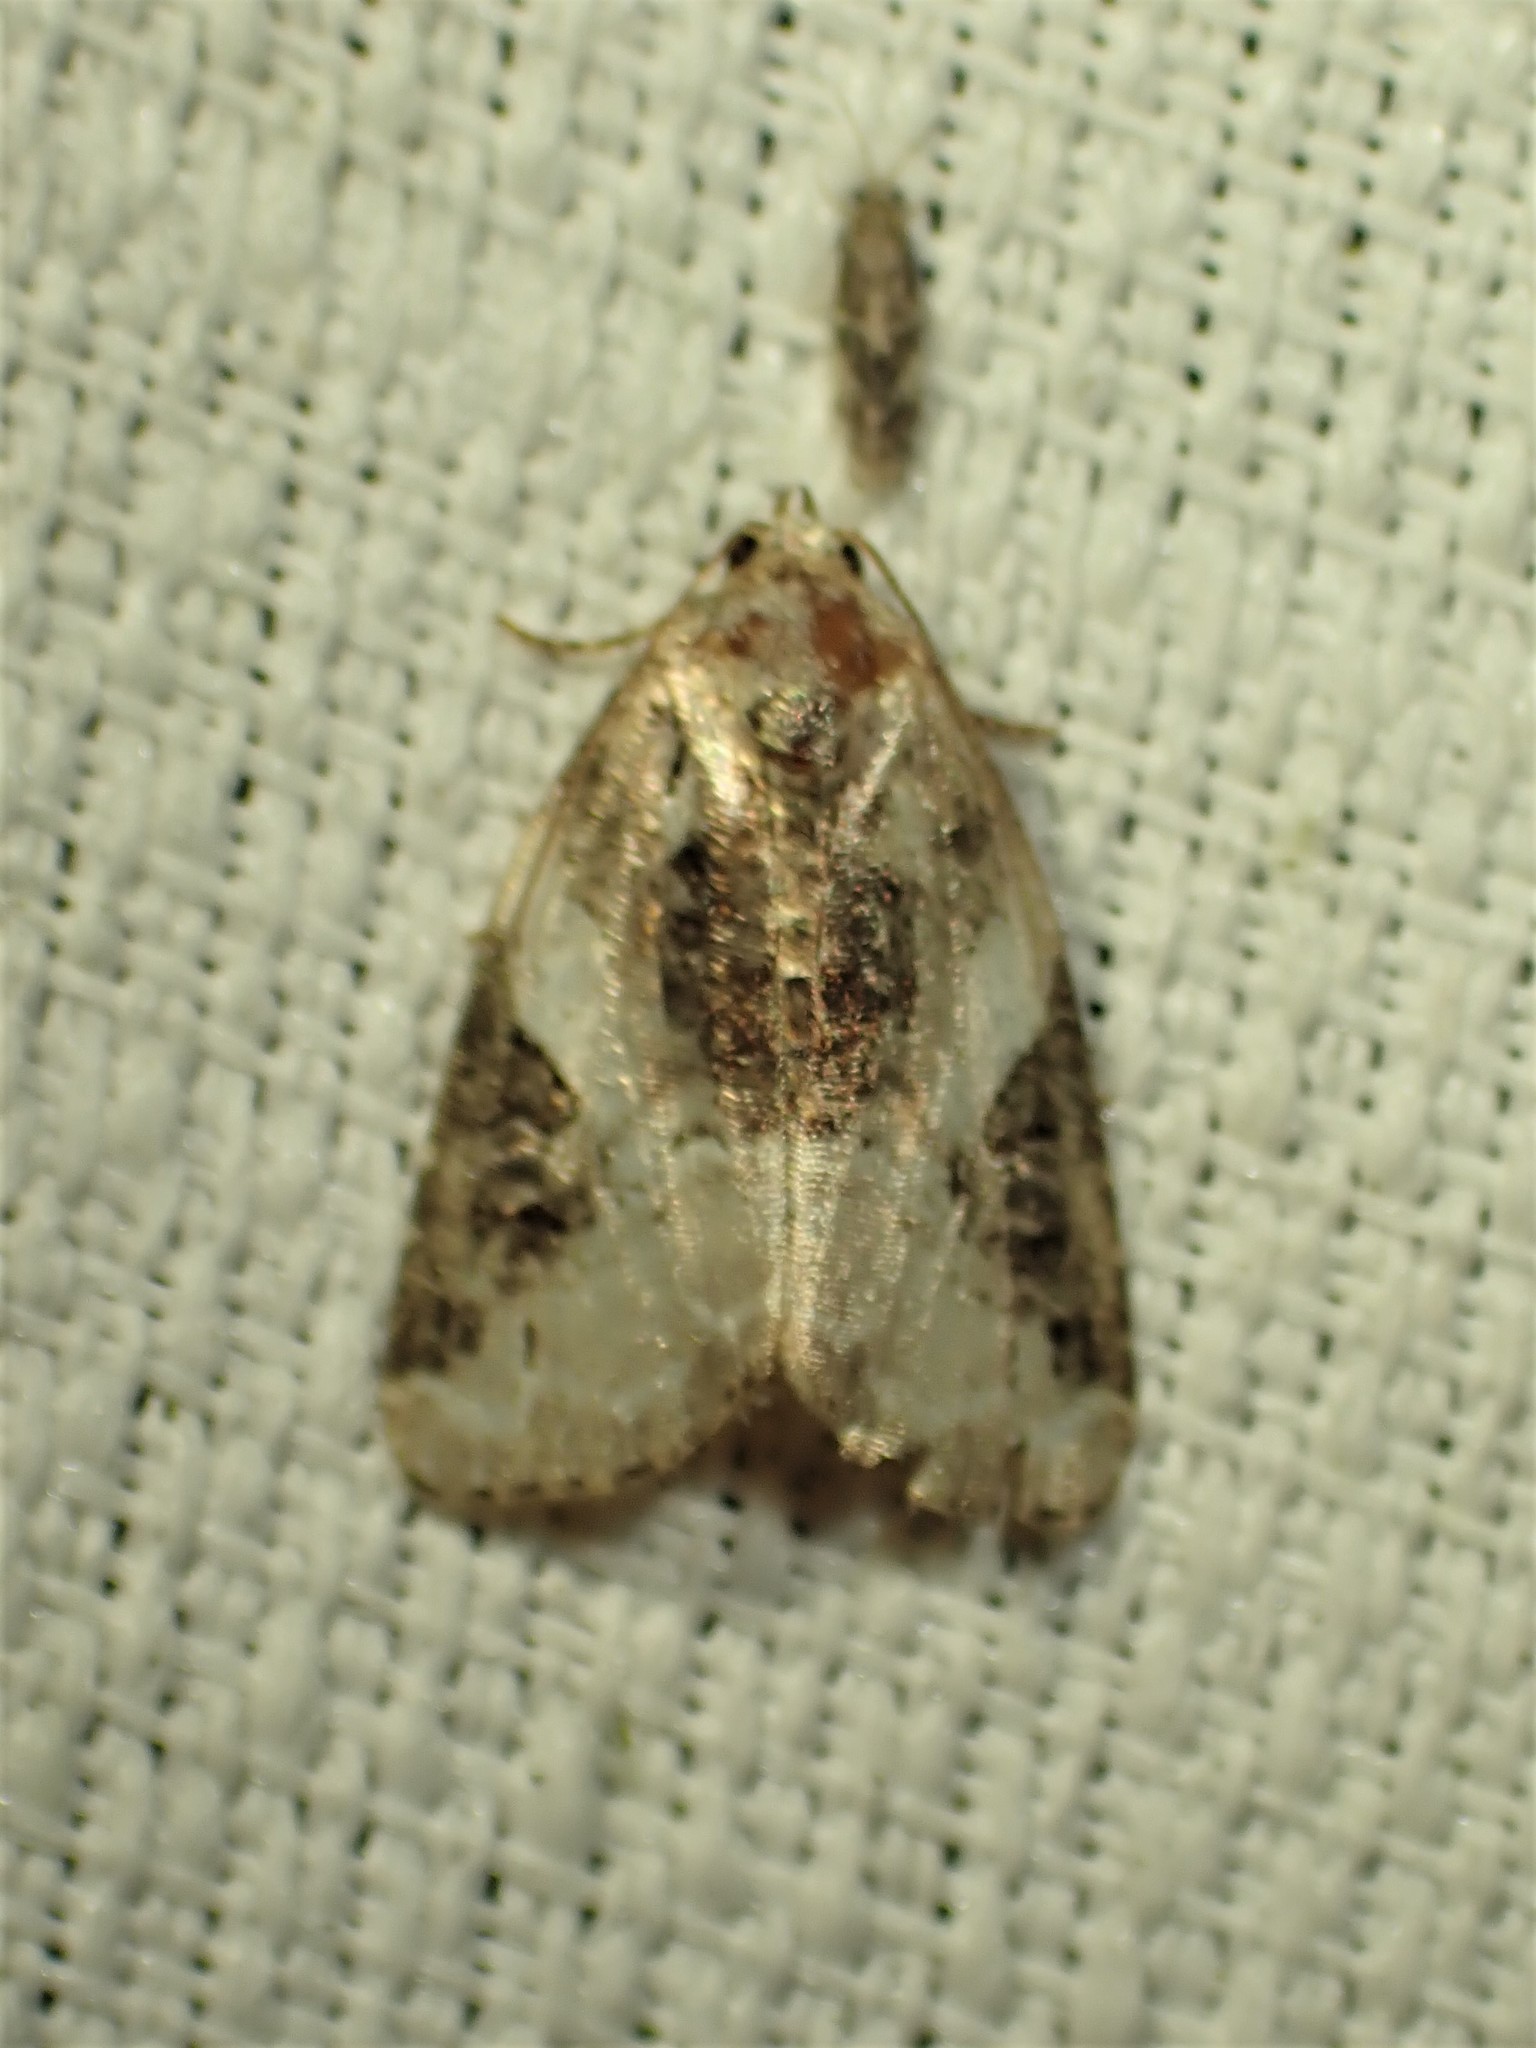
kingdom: Animalia
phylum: Arthropoda
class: Insecta
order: Lepidoptera
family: Noctuidae
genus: Pseudeustrotia
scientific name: Pseudeustrotia carneola
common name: Pink-barred lithacodia moth
